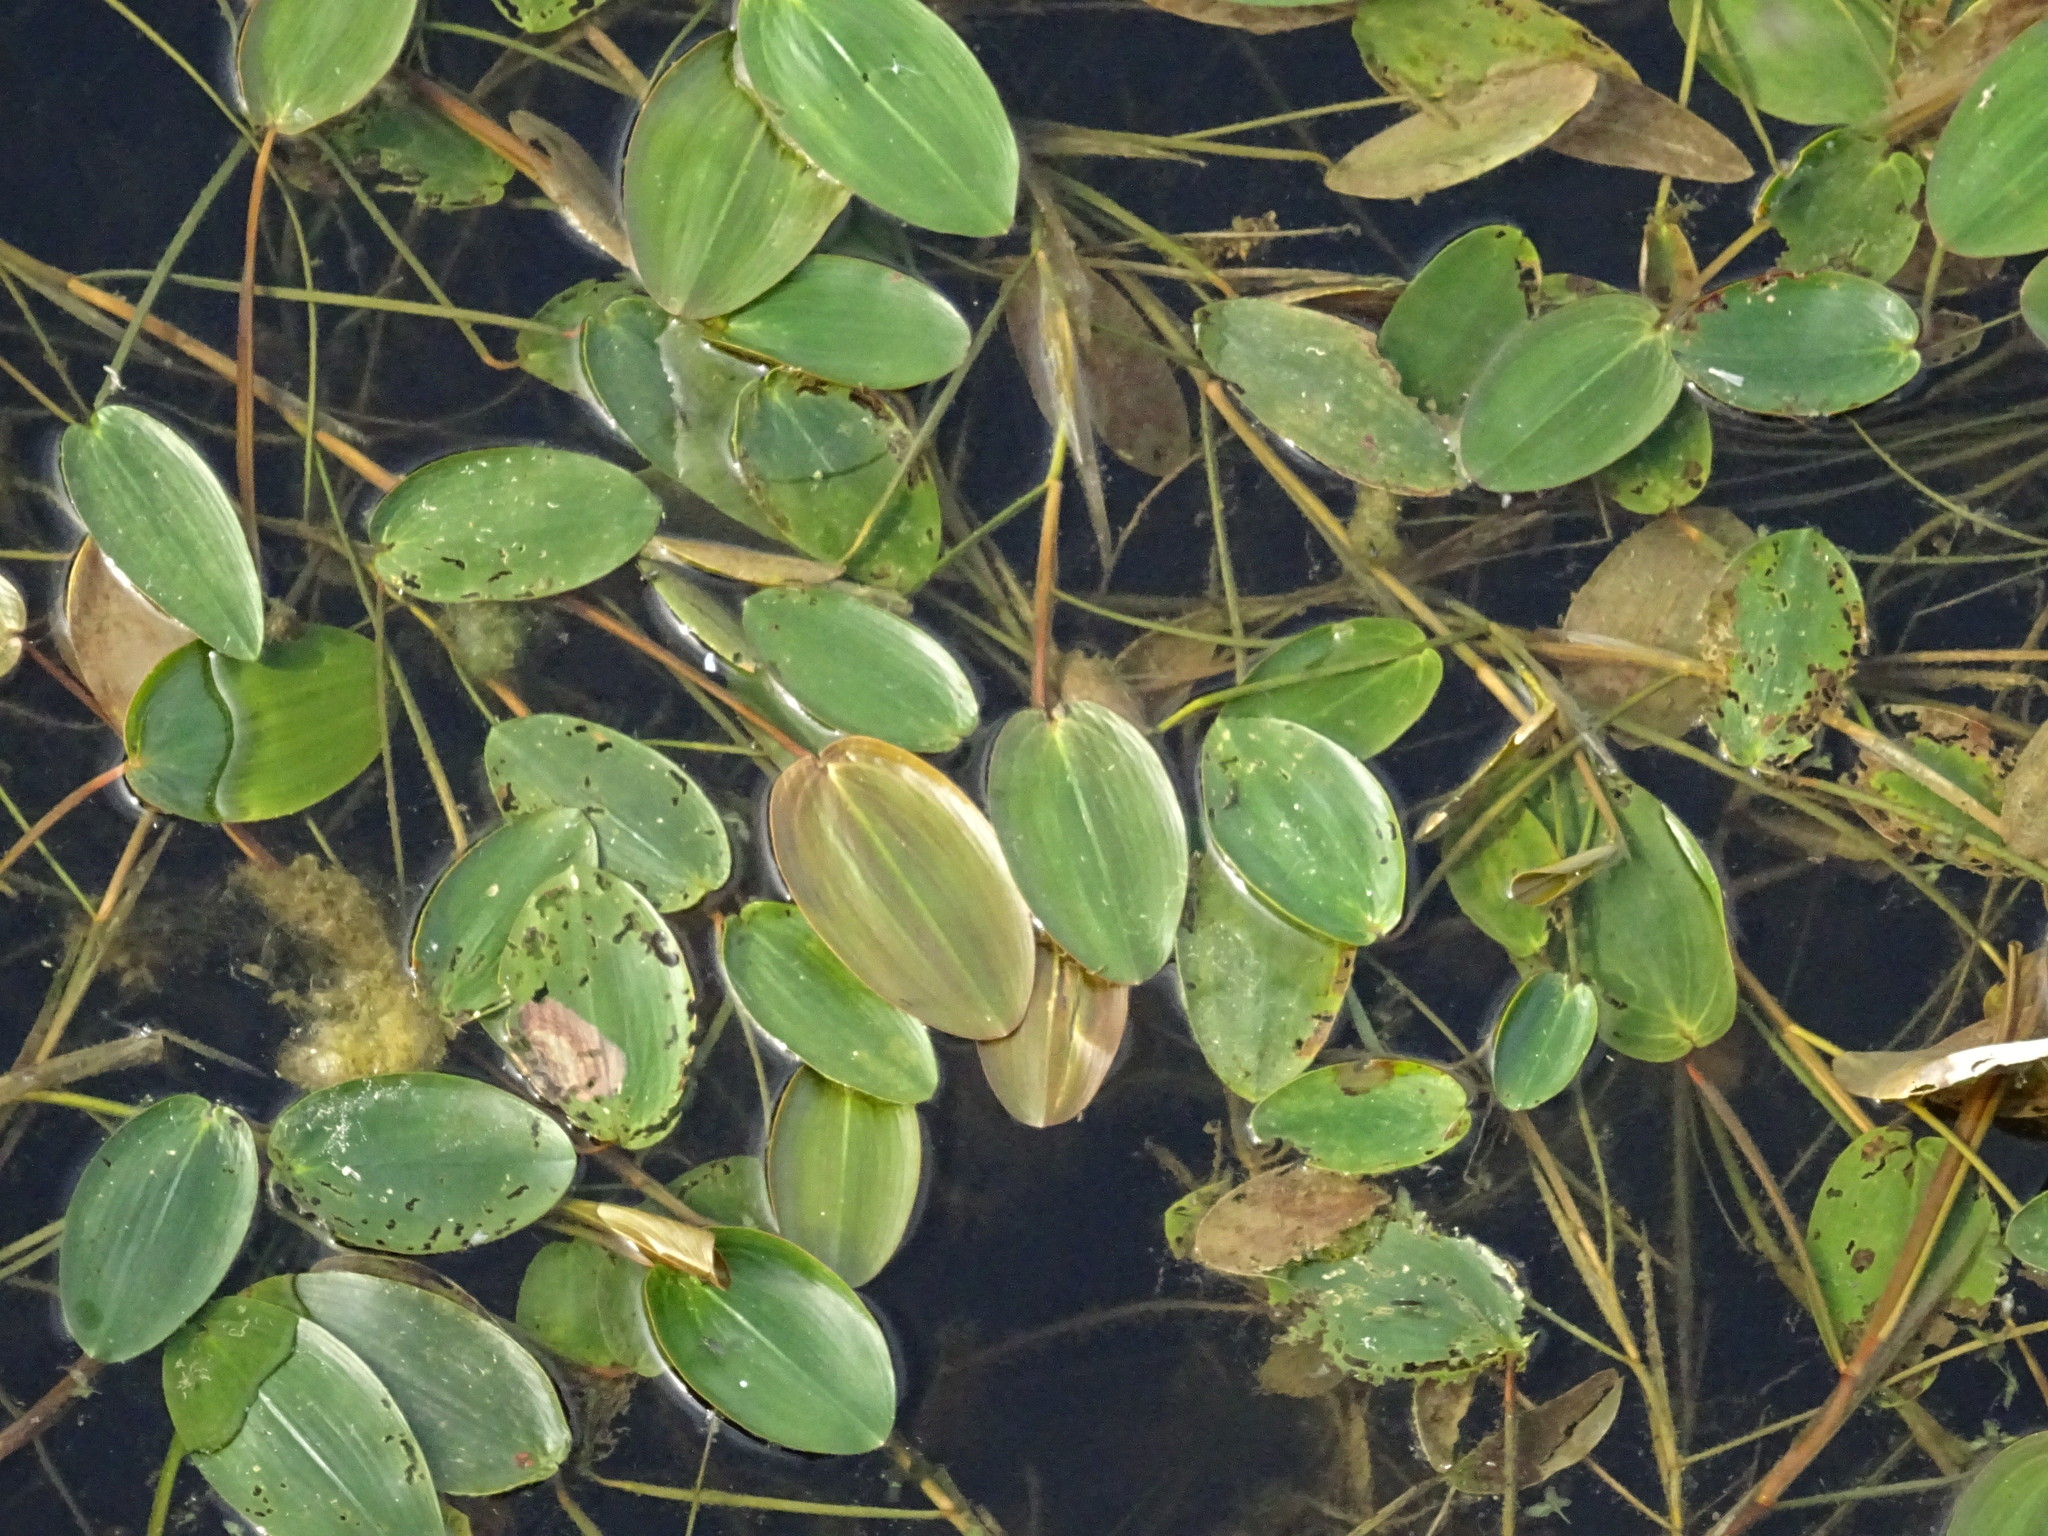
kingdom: Plantae
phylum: Tracheophyta
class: Liliopsida
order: Alismatales
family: Potamogetonaceae
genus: Potamogeton
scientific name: Potamogeton natans
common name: Broad-leaved pondweed
